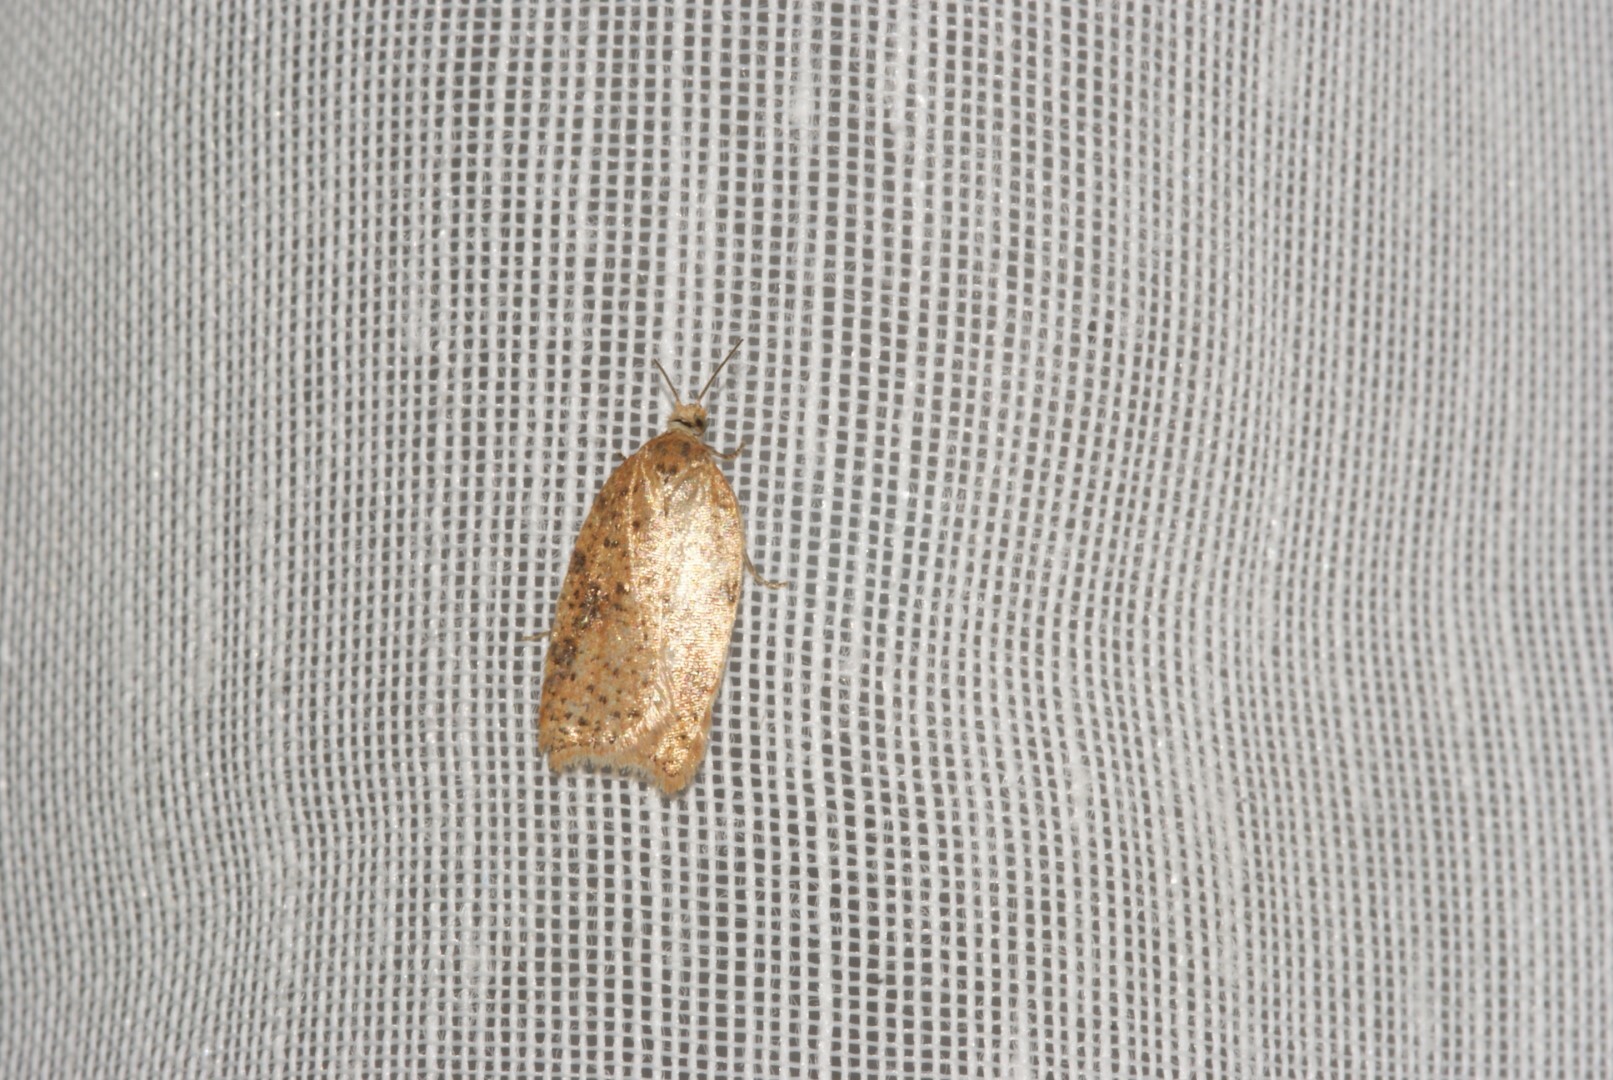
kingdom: Animalia
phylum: Arthropoda
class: Insecta
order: Lepidoptera
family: Tortricidae
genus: Acleris
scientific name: Acleris ferrugana
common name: Rusty oak button
